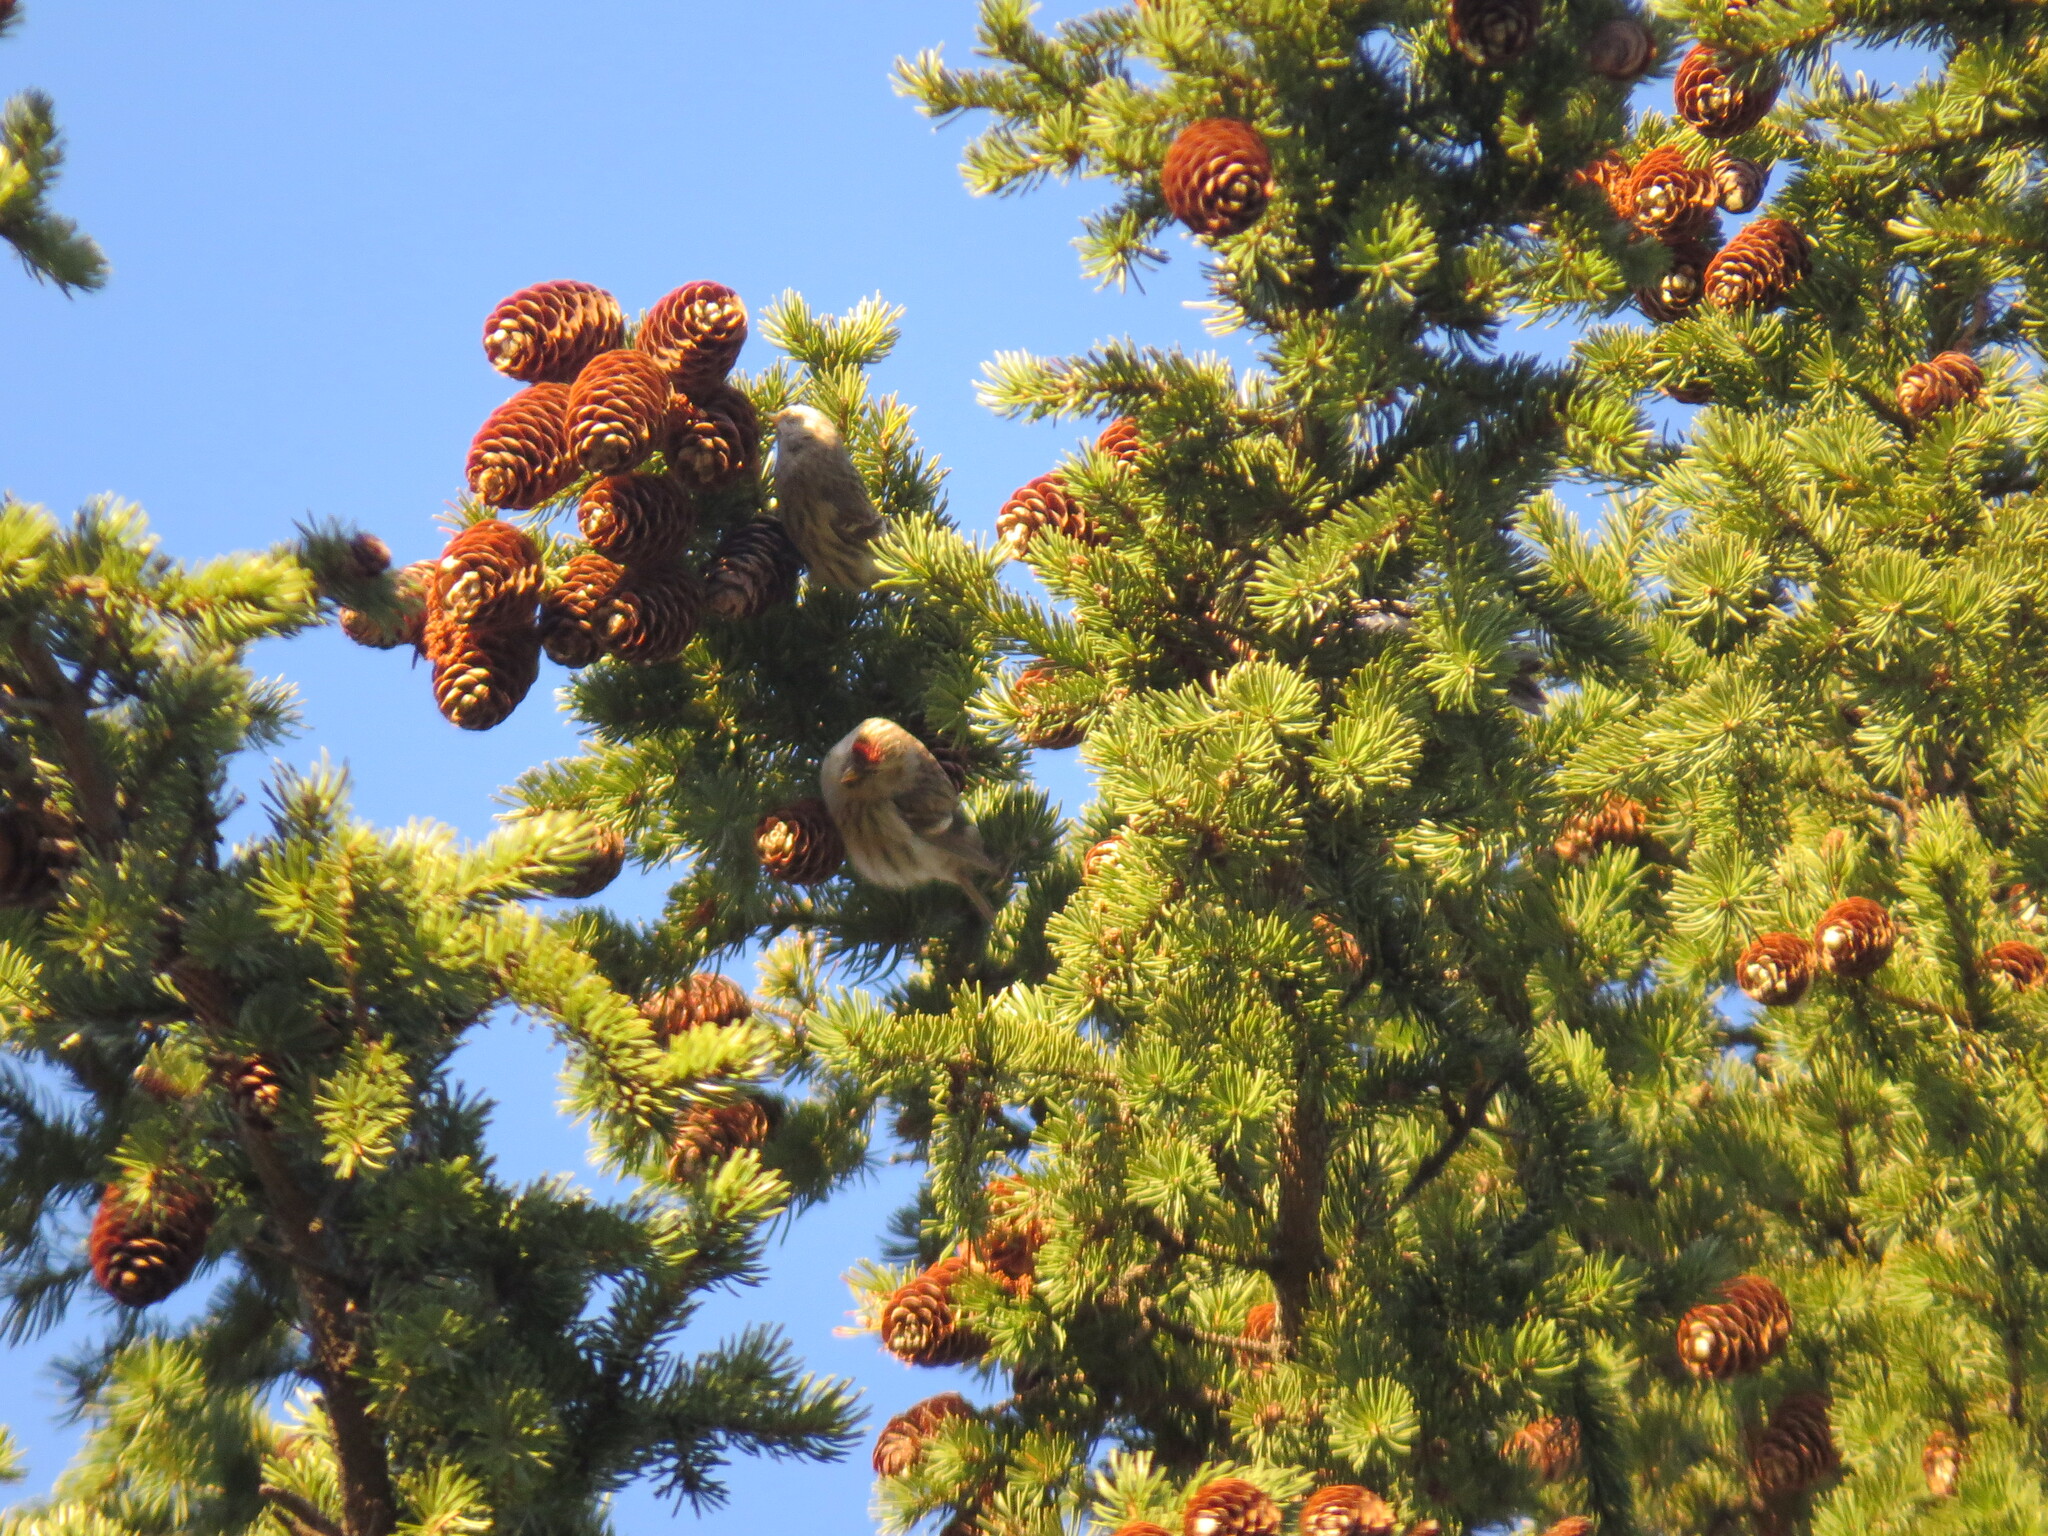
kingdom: Animalia
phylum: Chordata
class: Aves
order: Passeriformes
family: Fringillidae
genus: Acanthis
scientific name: Acanthis flammea
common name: Common redpoll
